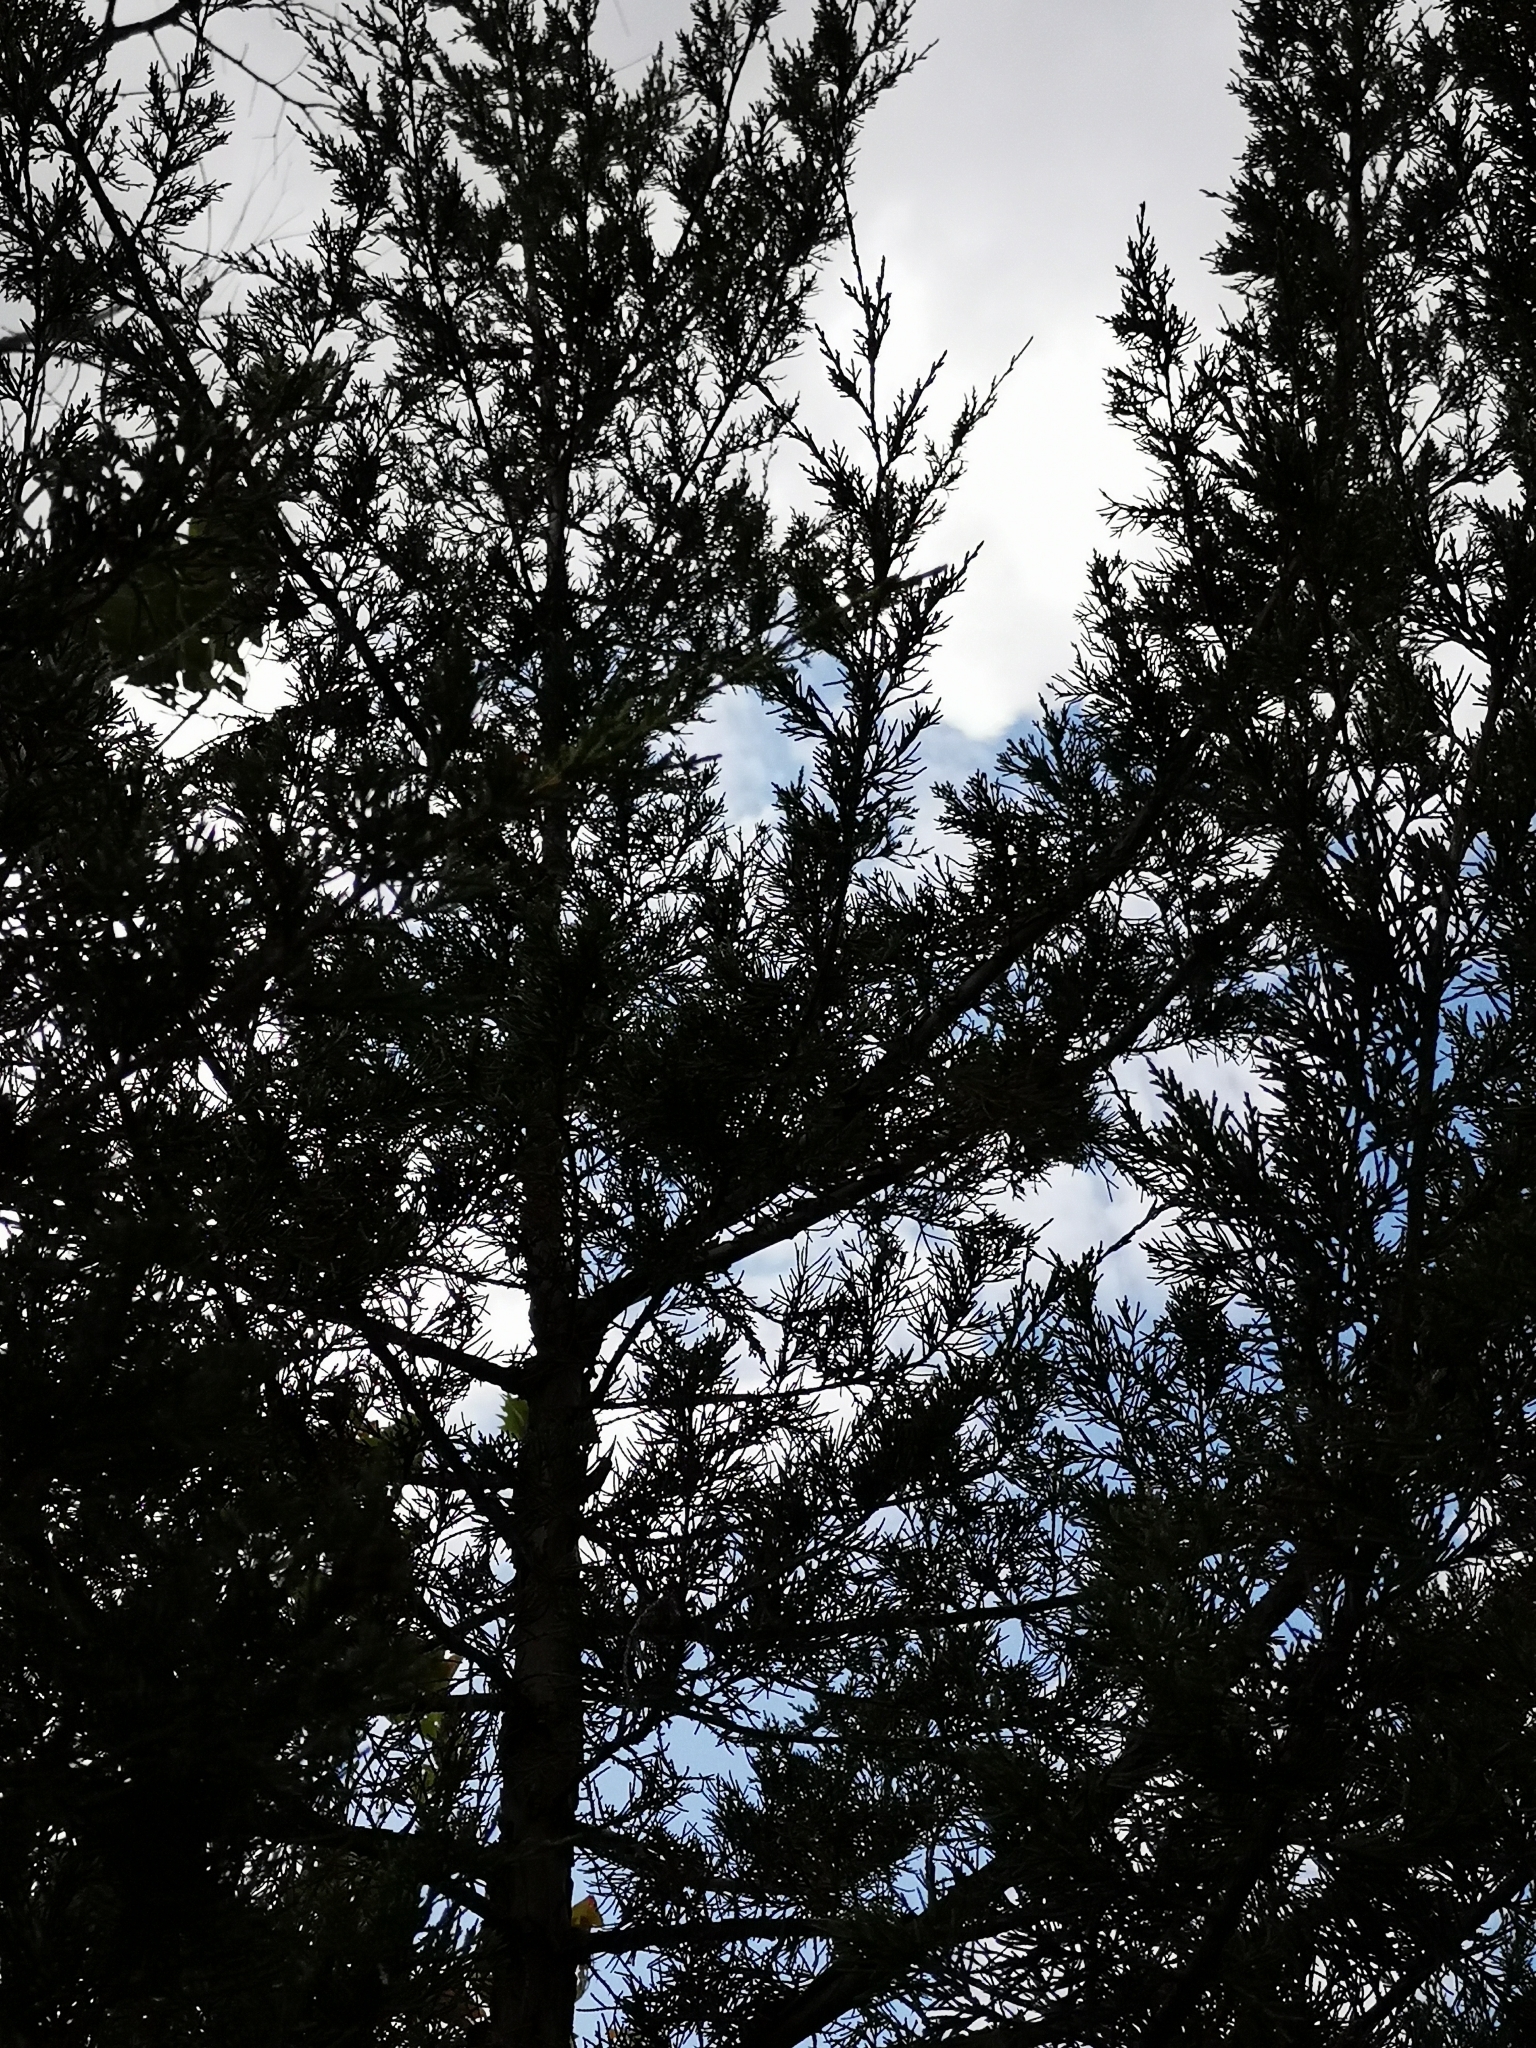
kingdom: Plantae
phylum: Tracheophyta
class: Pinopsida
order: Pinales
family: Cupressaceae
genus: Juniperus
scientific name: Juniperus virginiana
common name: Red juniper
